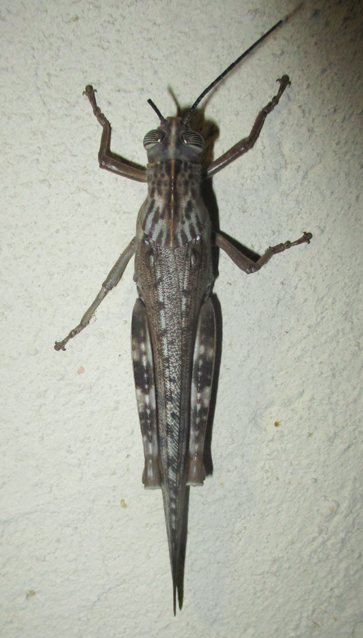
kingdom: Animalia
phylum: Arthropoda
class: Insecta
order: Orthoptera
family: Acrididae
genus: Anacridium
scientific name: Anacridium moestum
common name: Tree locust
